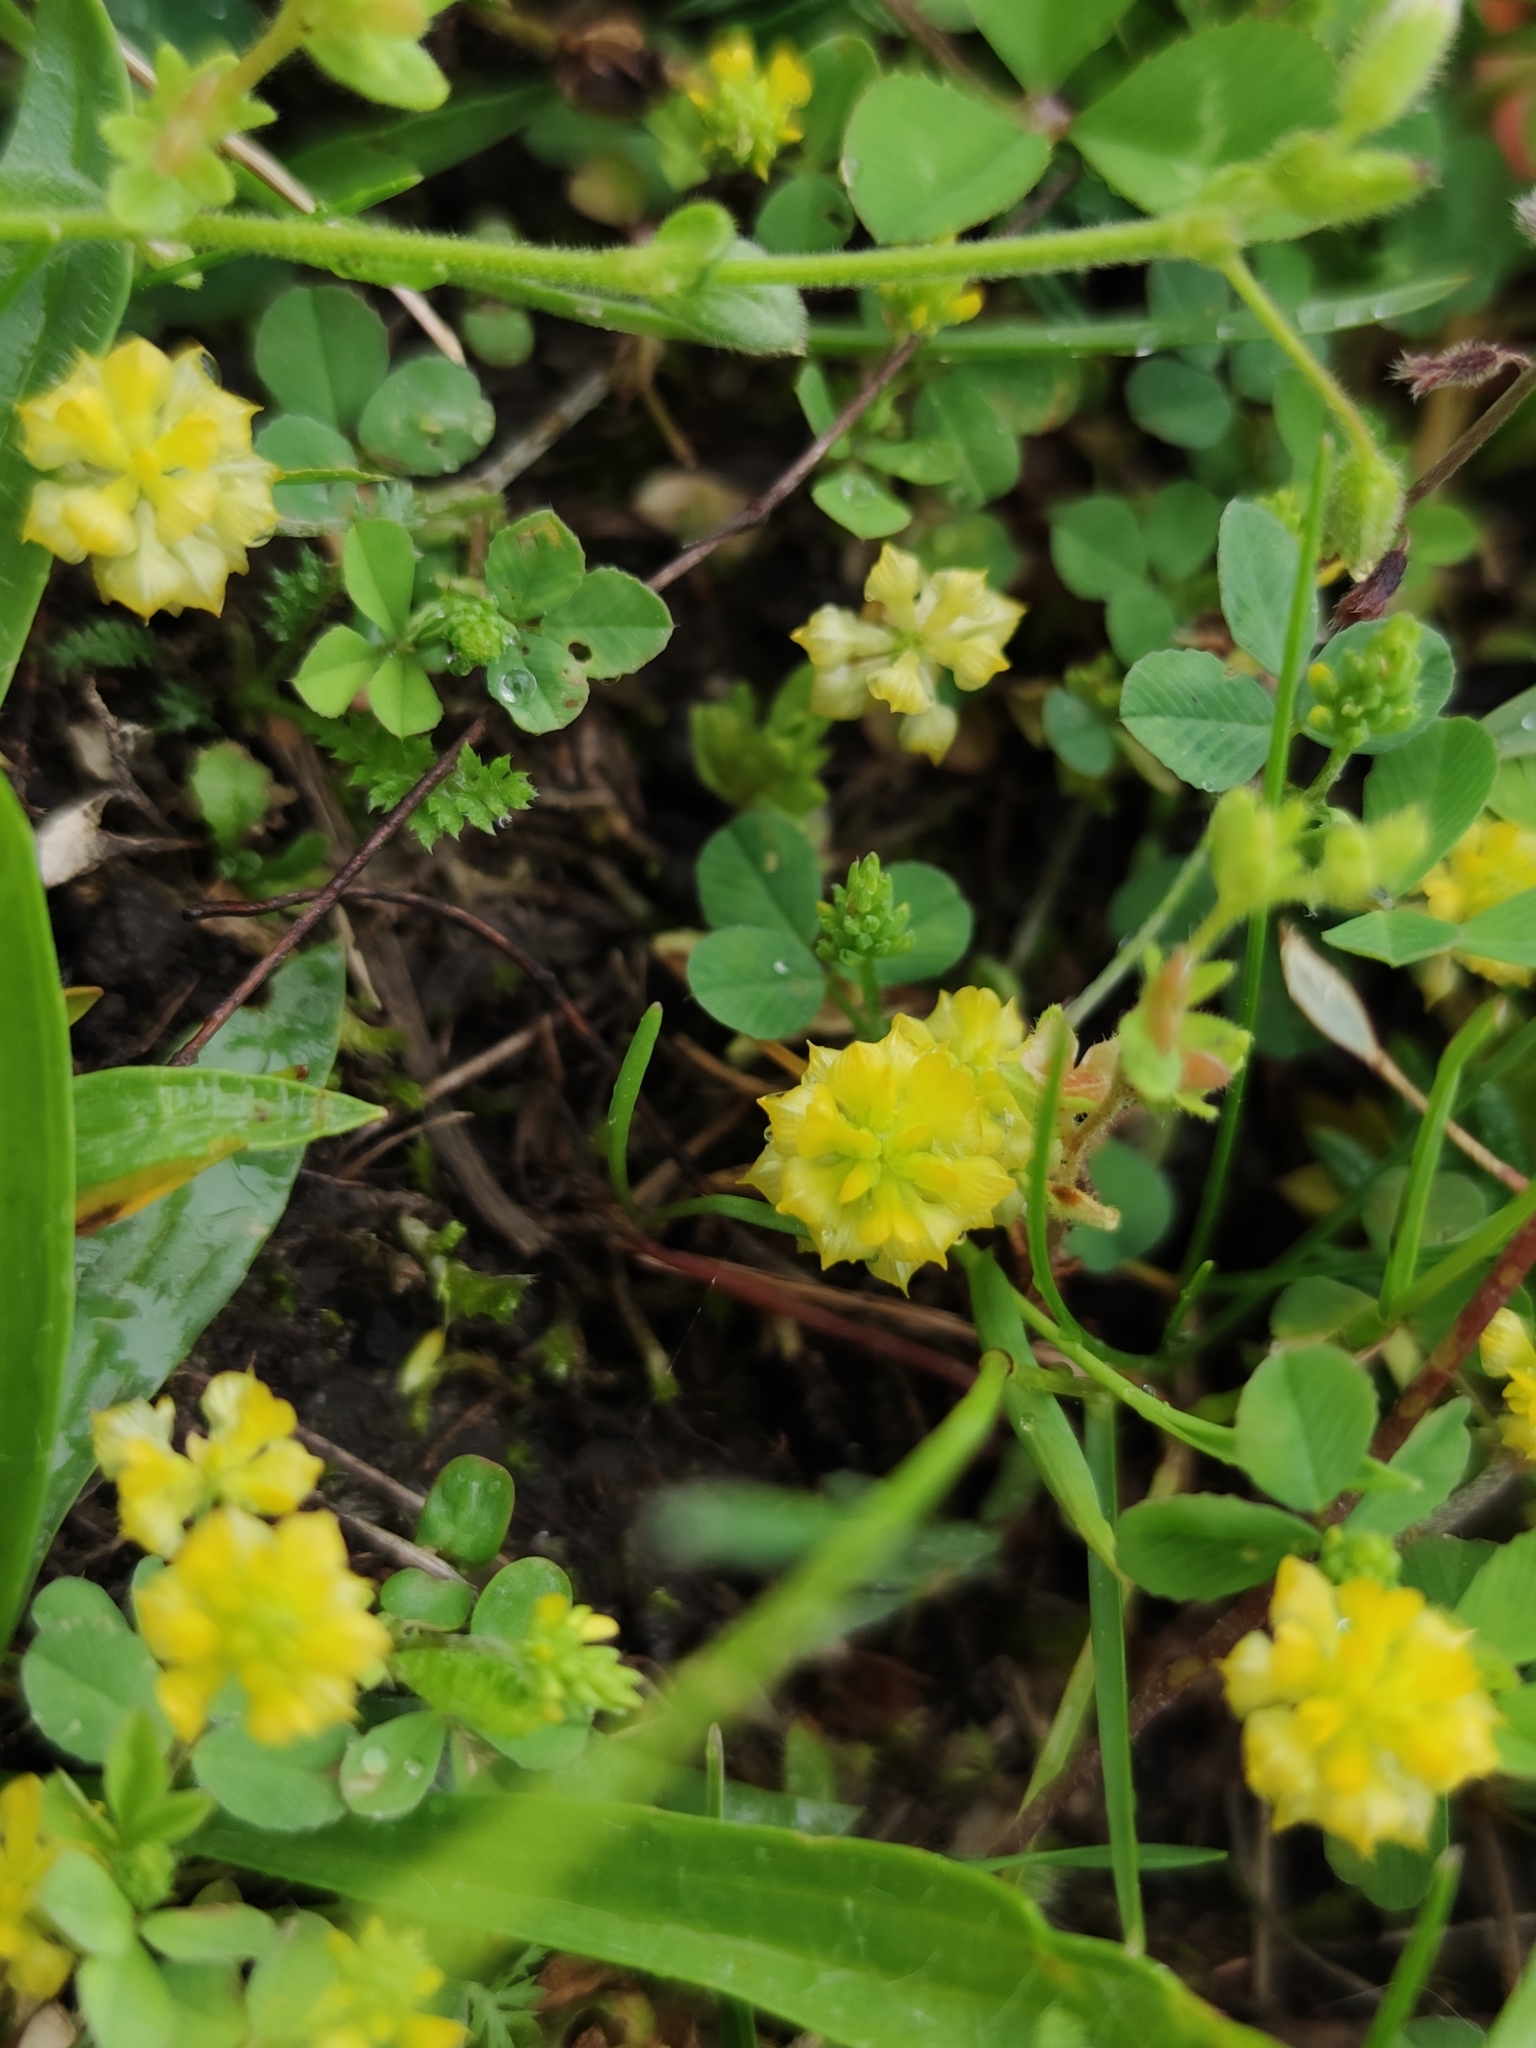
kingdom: Plantae
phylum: Tracheophyta
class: Magnoliopsida
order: Fabales
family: Fabaceae
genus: Trifolium
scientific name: Trifolium campestre
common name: Field clover
